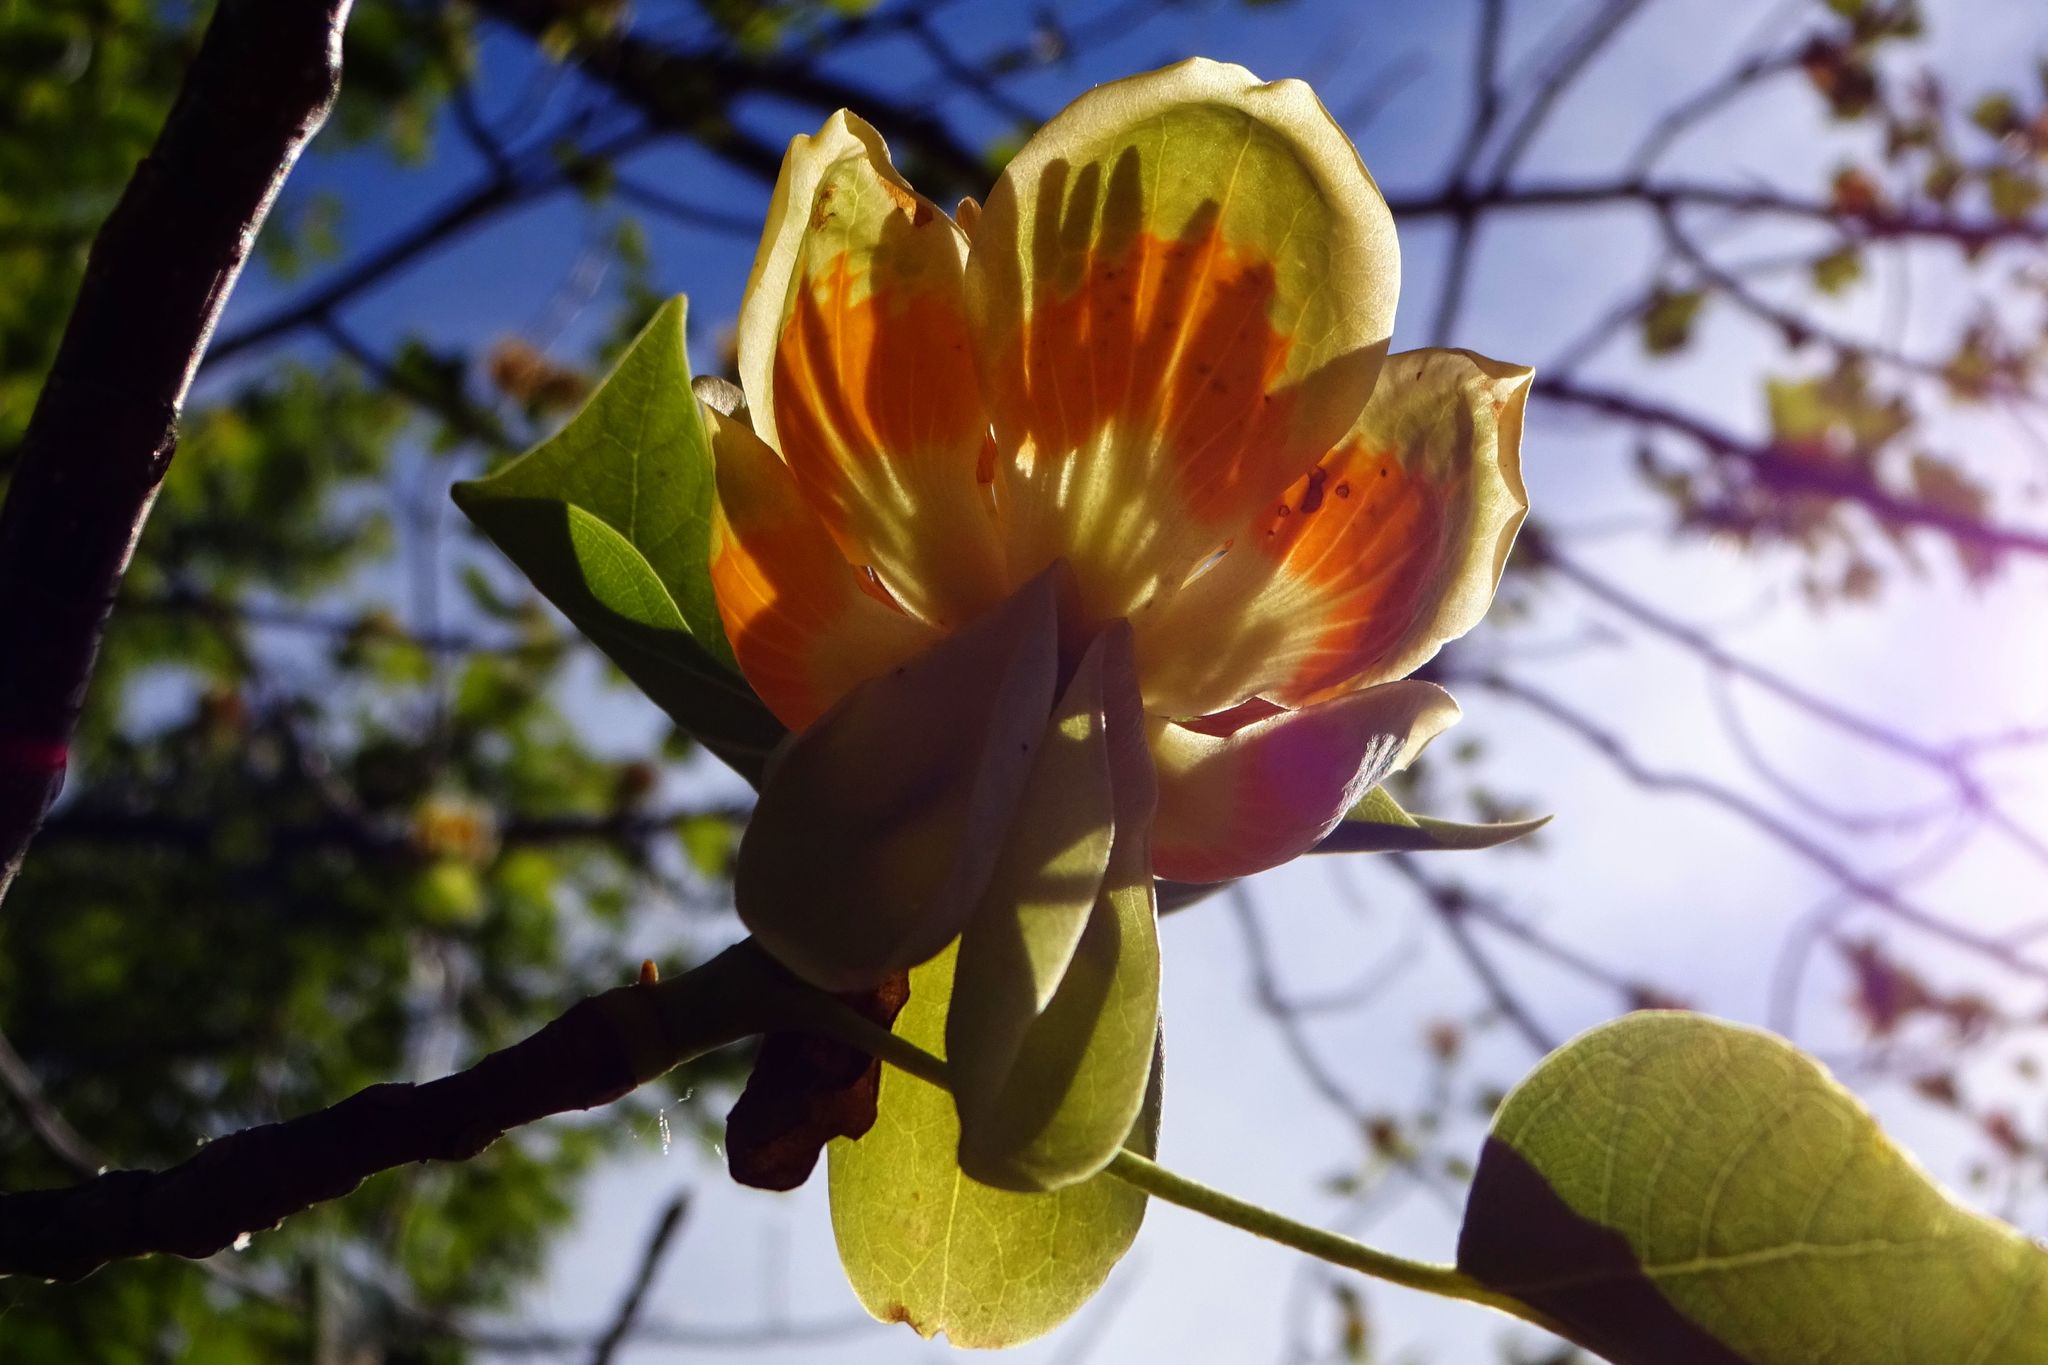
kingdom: Plantae
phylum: Tracheophyta
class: Magnoliopsida
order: Magnoliales
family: Magnoliaceae
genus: Liriodendron
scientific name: Liriodendron tulipifera
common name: Tulip tree
